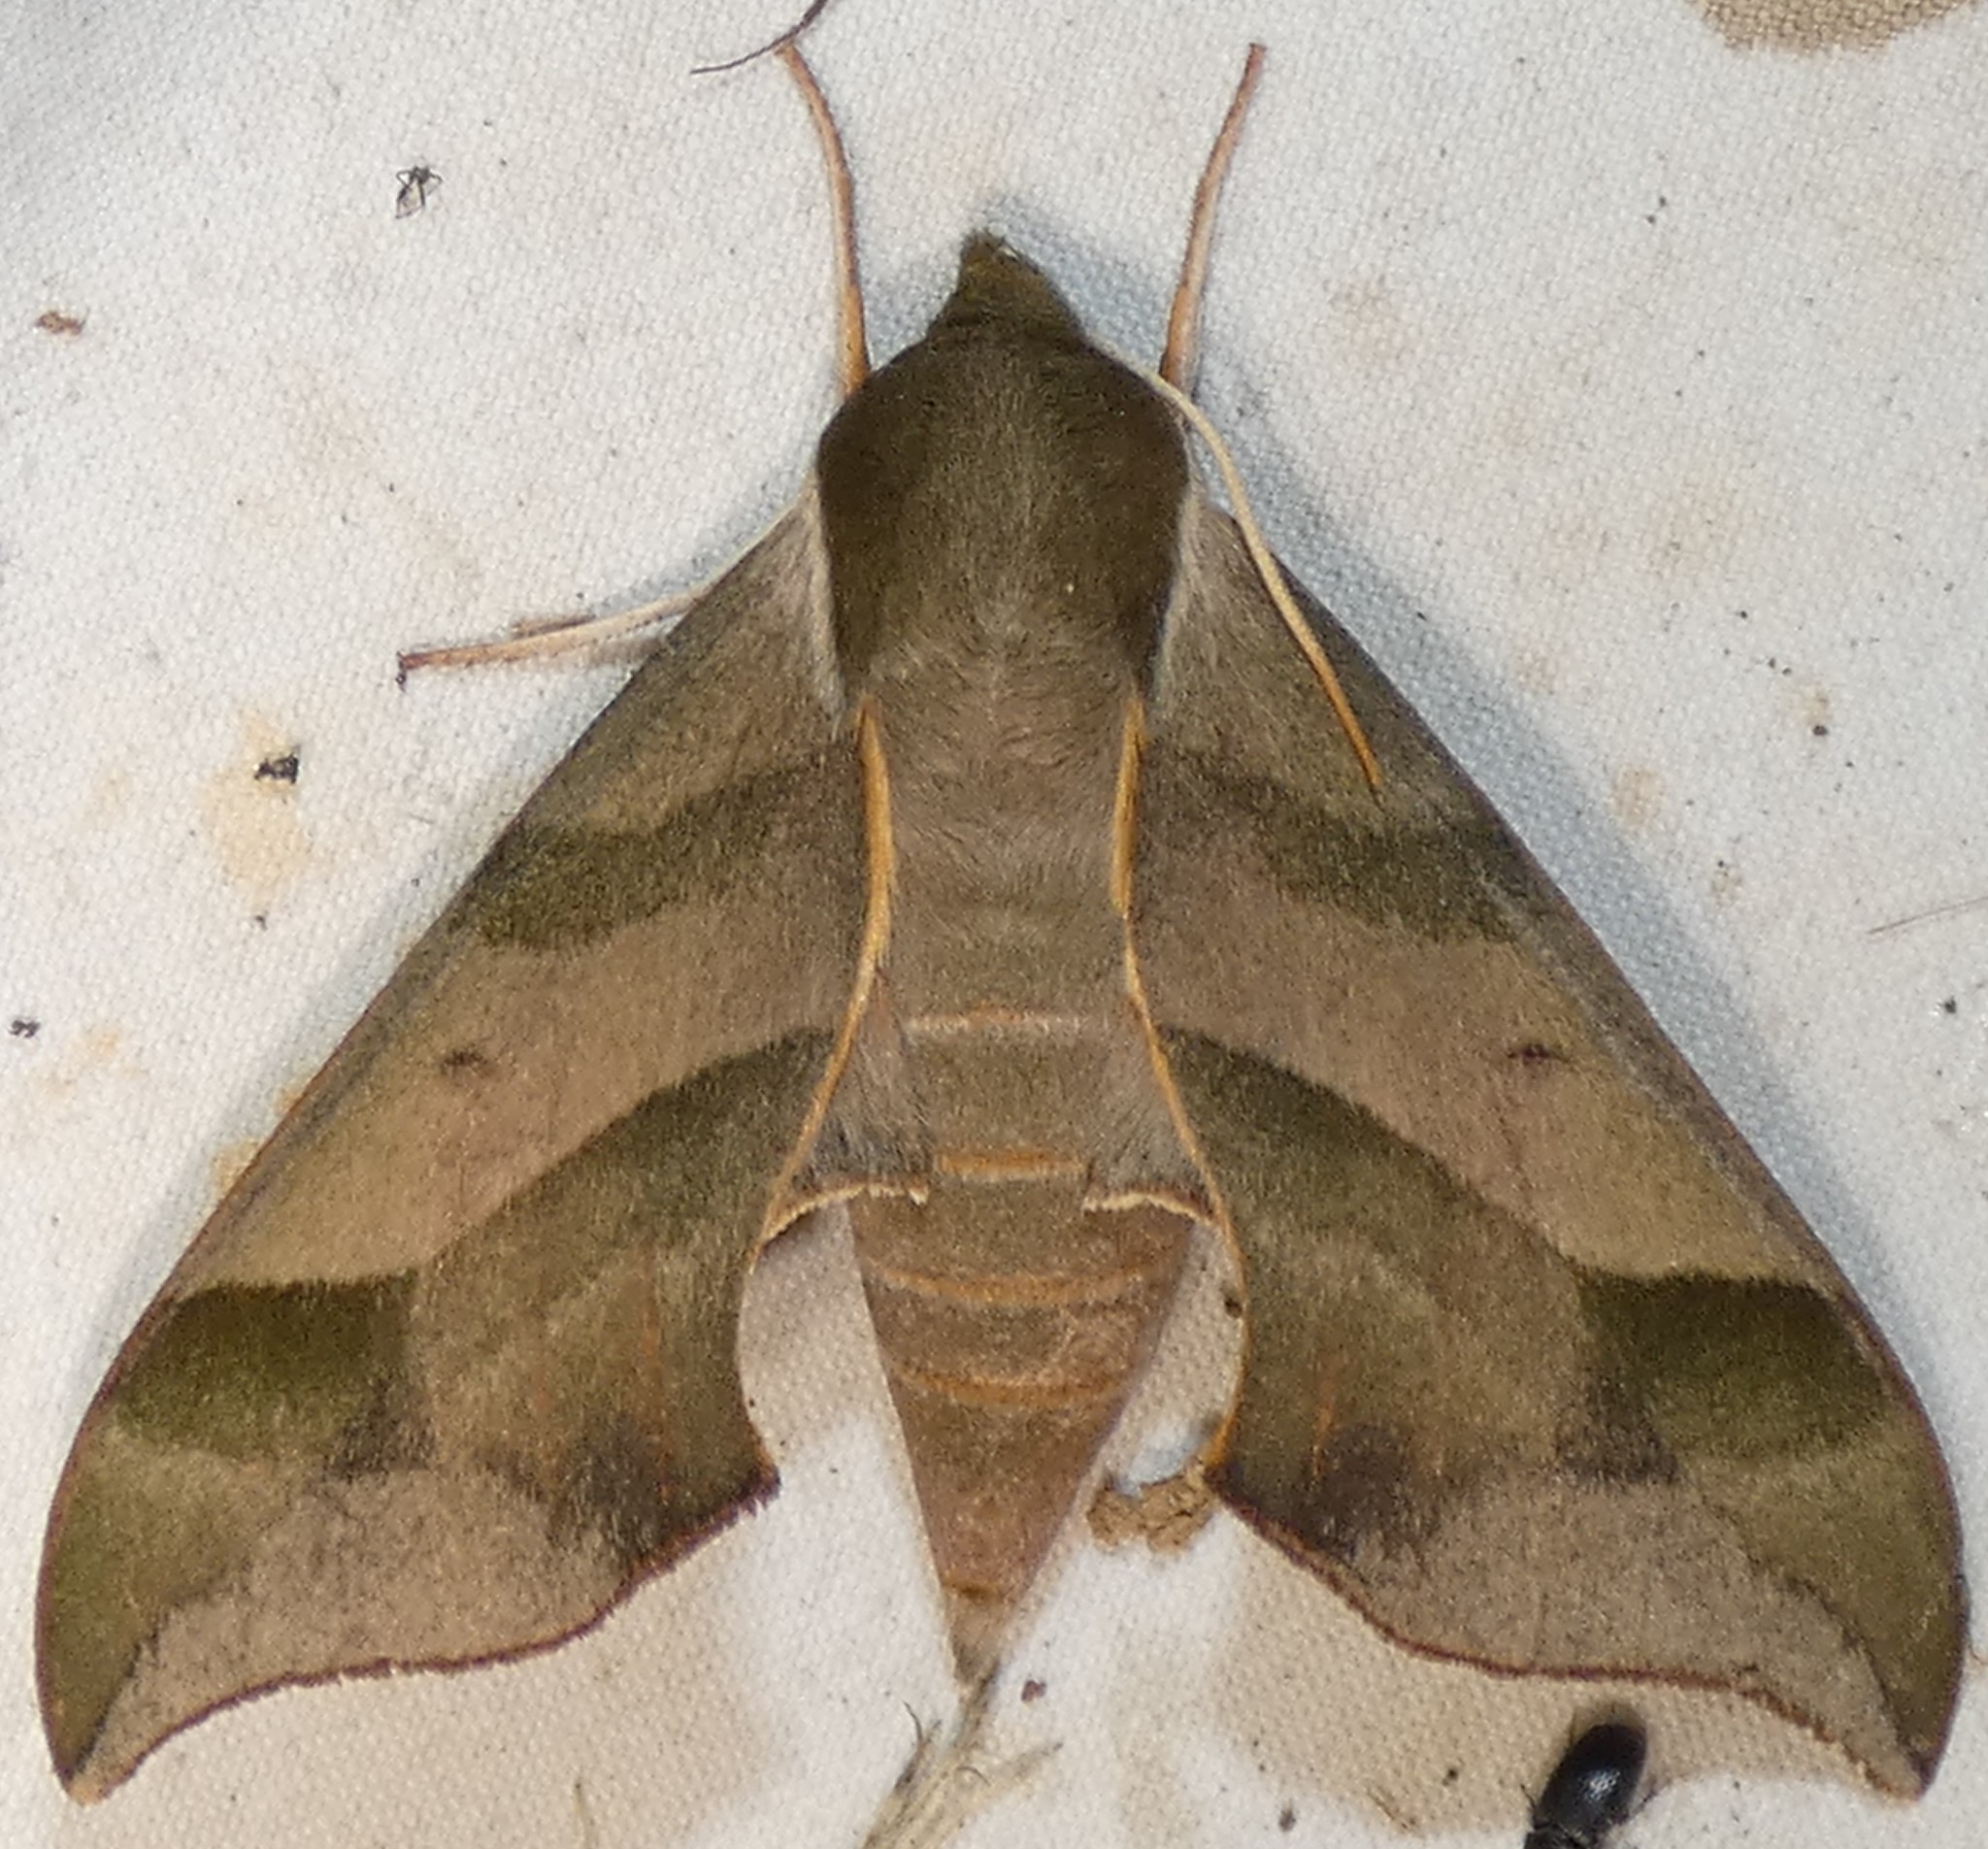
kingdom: Animalia
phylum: Arthropoda
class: Insecta
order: Lepidoptera
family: Sphingidae
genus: Darapsa
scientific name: Darapsa myron
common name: Hog sphinx
